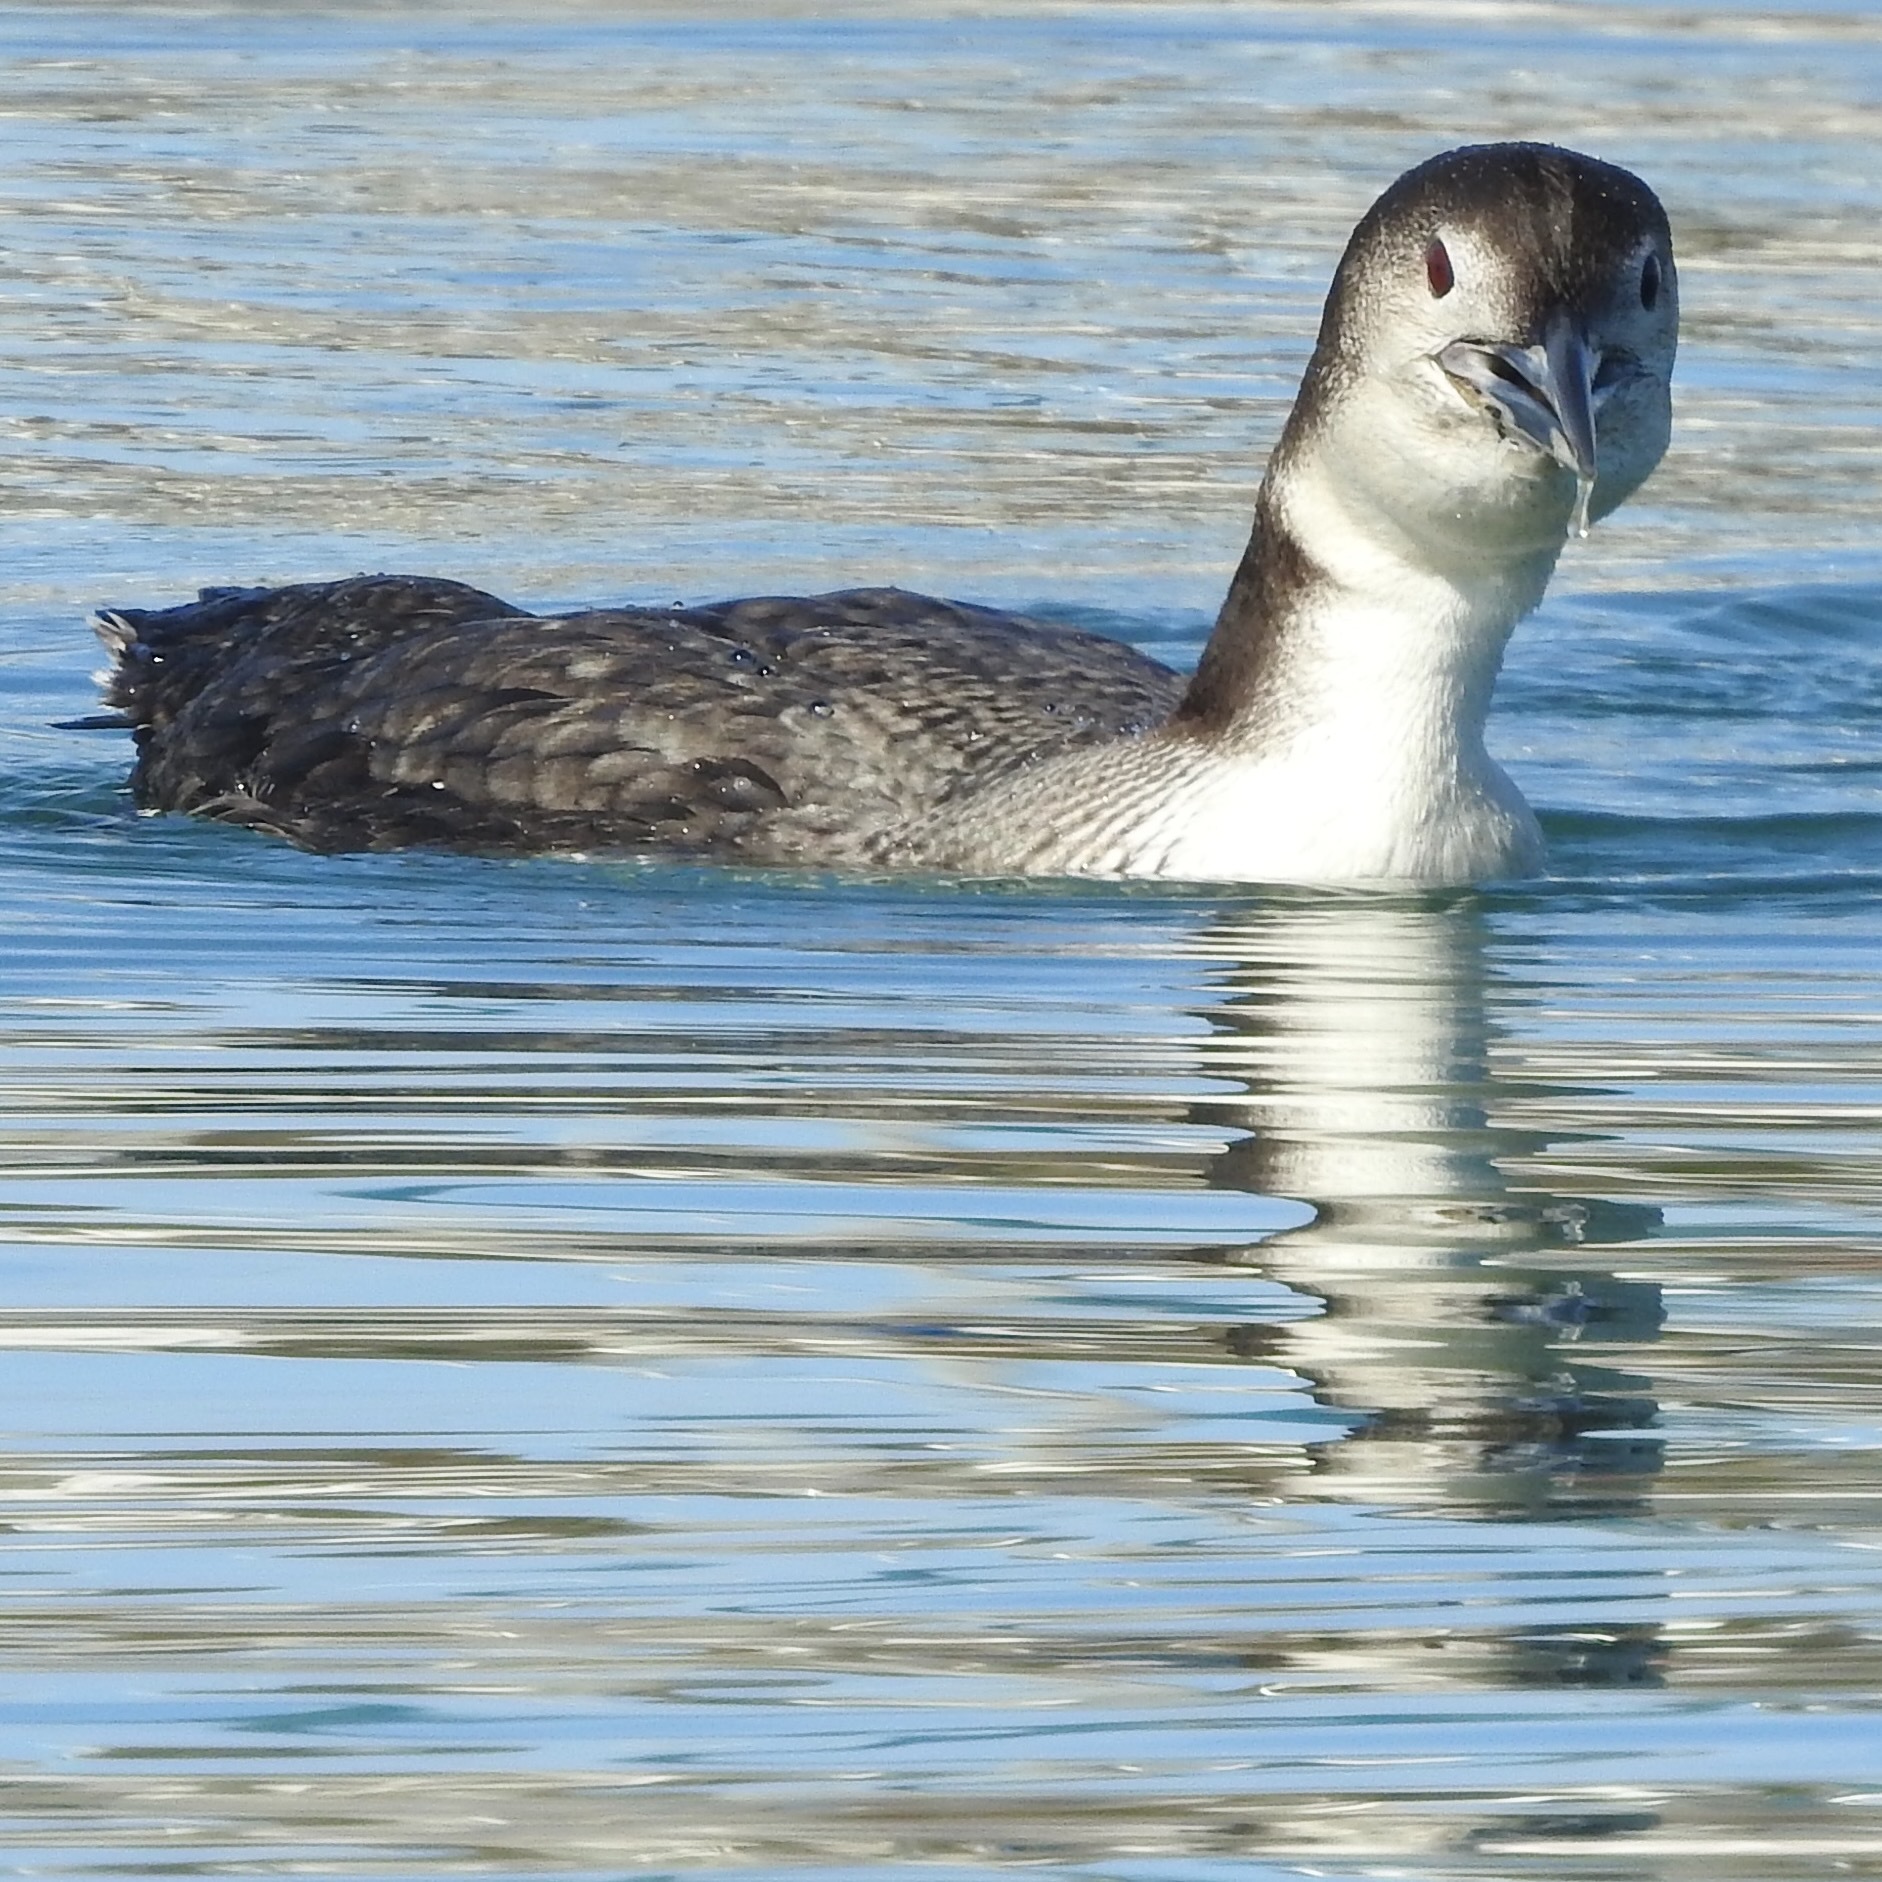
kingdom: Animalia
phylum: Chordata
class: Aves
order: Gaviiformes
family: Gaviidae
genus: Gavia
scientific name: Gavia immer
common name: Common loon
